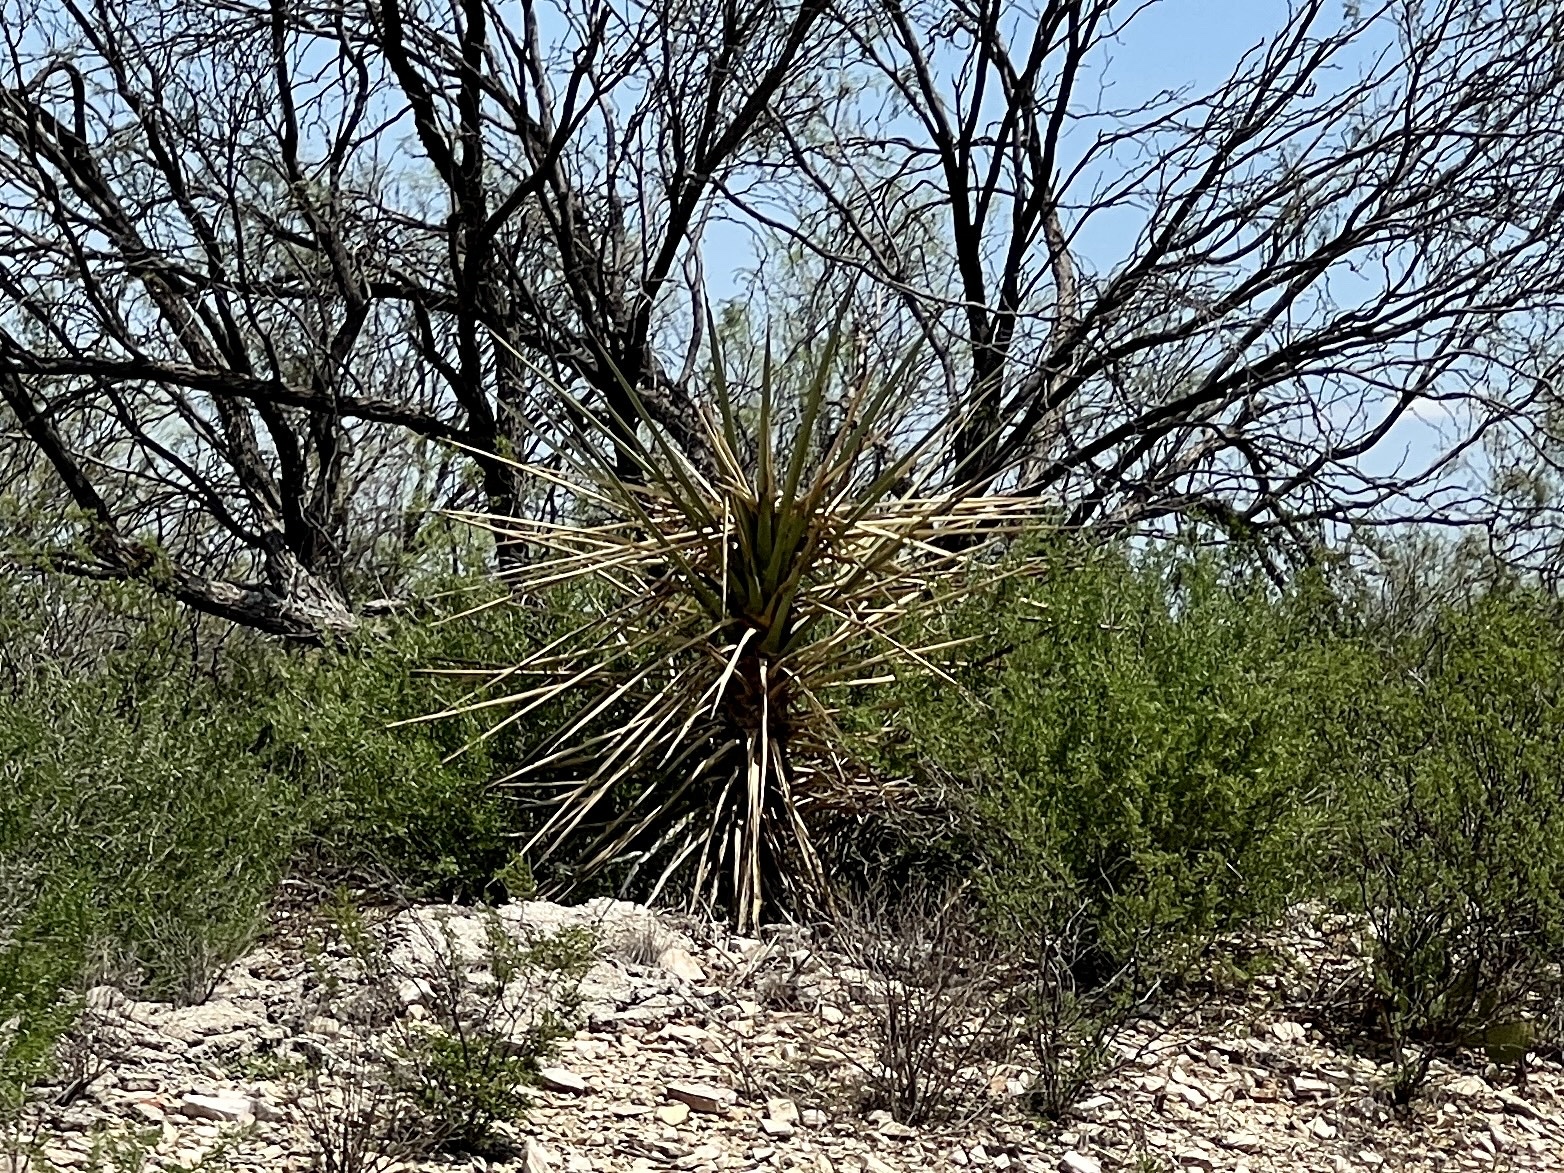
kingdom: Plantae
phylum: Tracheophyta
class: Liliopsida
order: Asparagales
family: Asparagaceae
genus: Yucca
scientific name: Yucca treculiana
